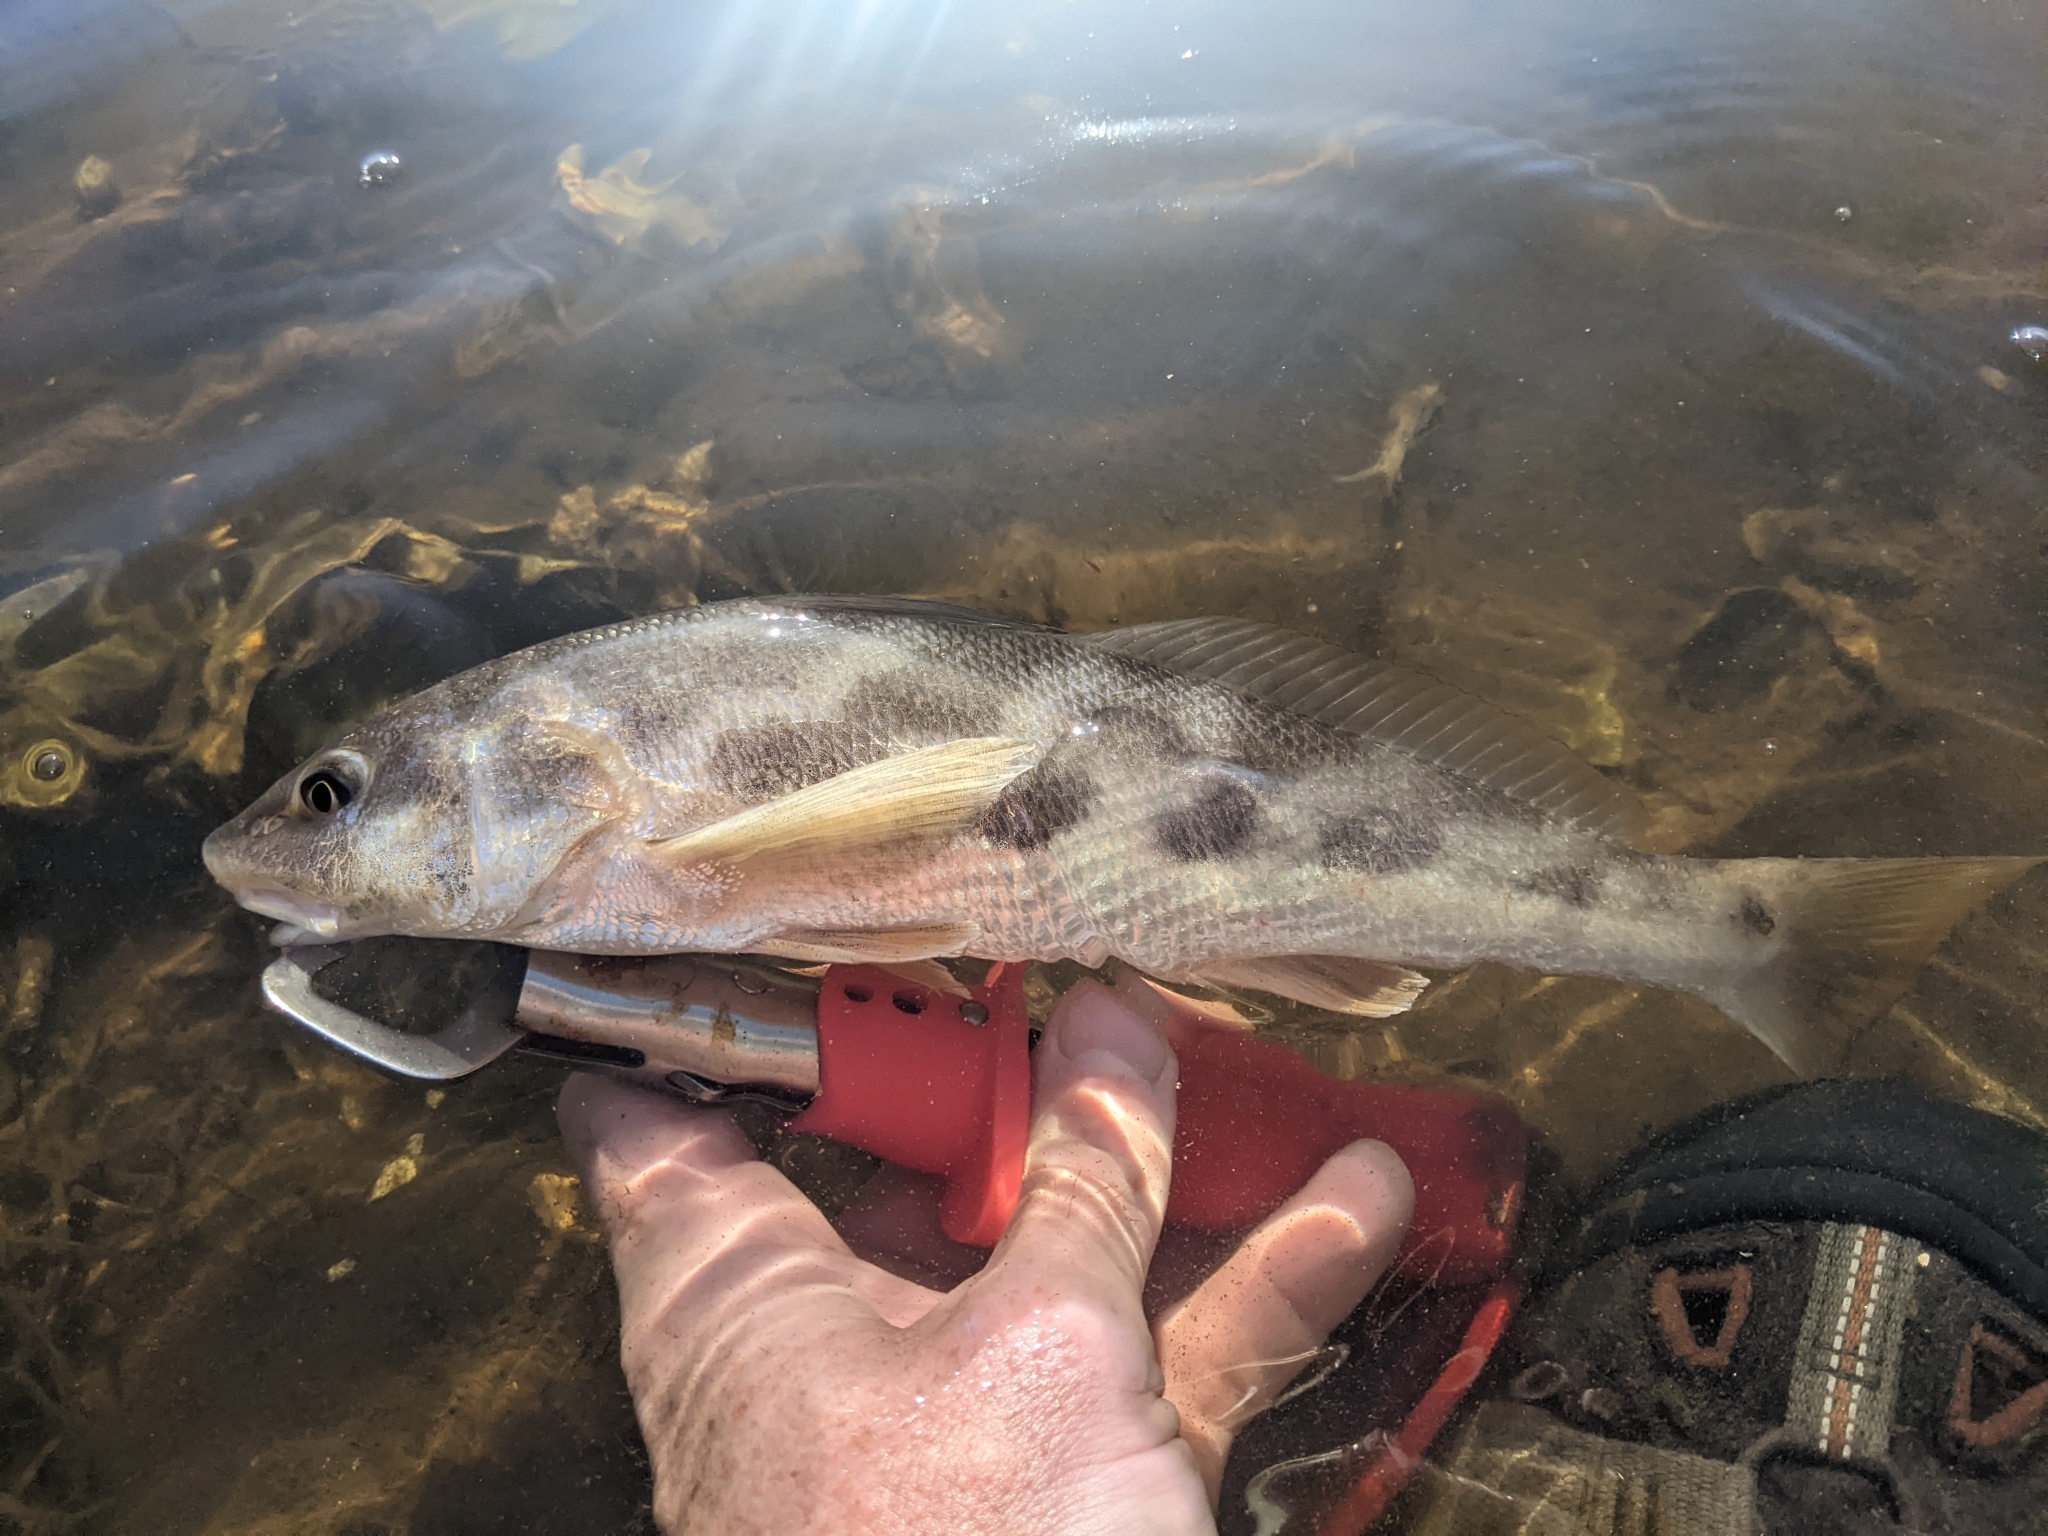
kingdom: Animalia
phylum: Chordata
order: Perciformes
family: Sciaenidae
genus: Menticirrhus
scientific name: Menticirrhus americanus
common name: Southern kingfish
